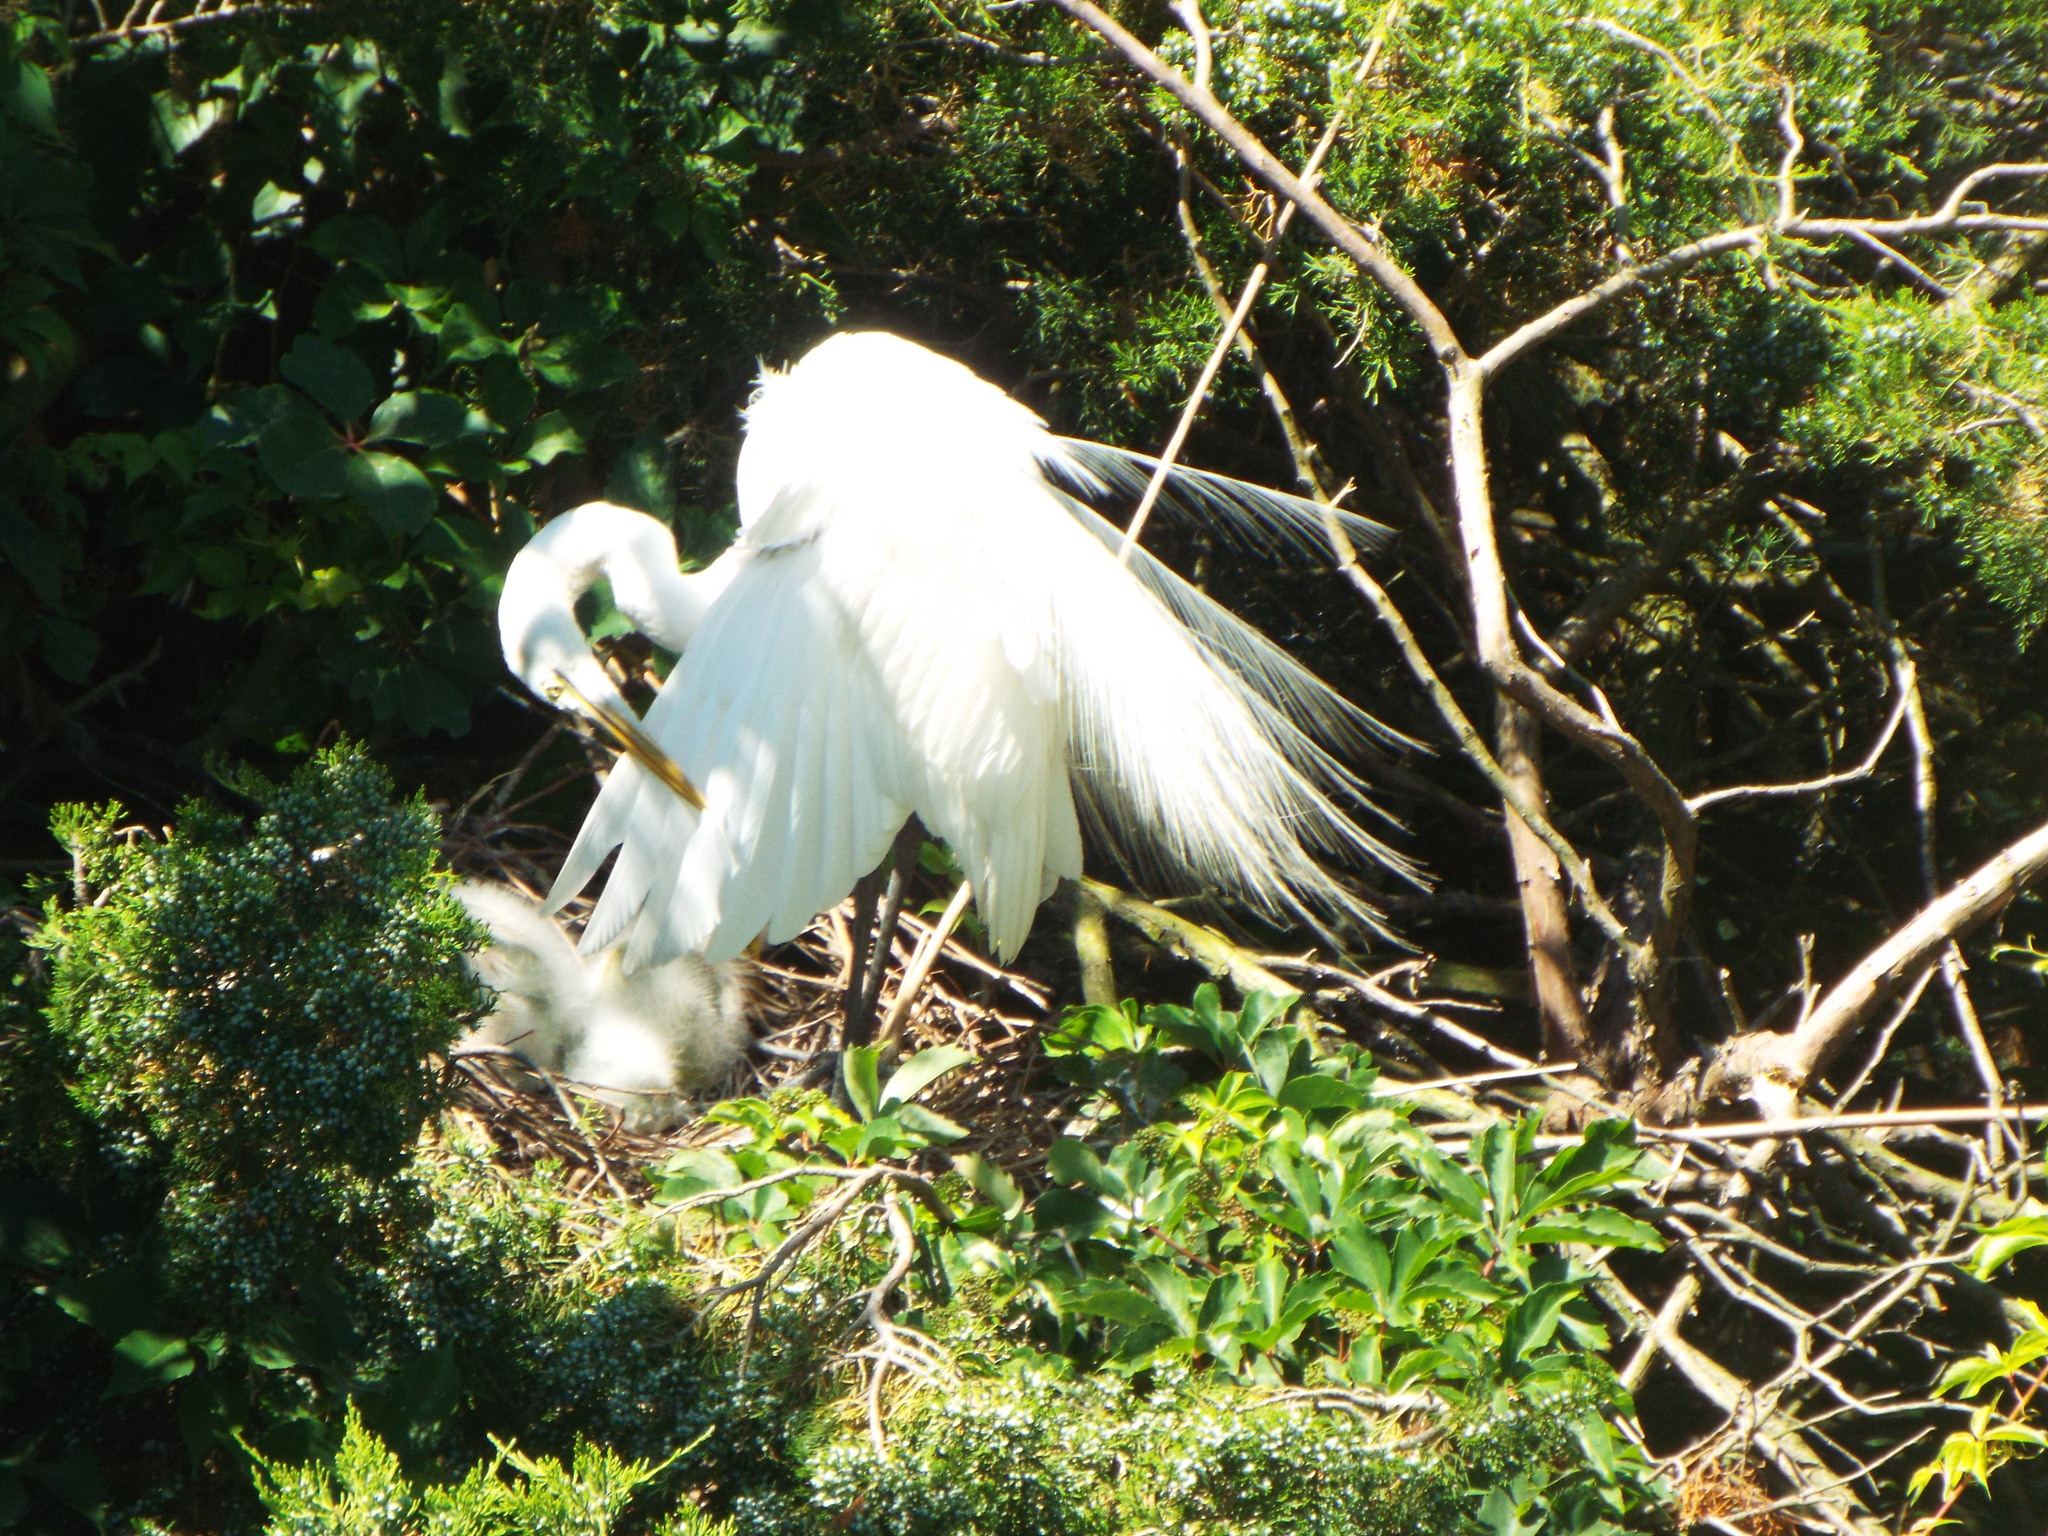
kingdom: Animalia
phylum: Chordata
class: Aves
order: Pelecaniformes
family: Ardeidae
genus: Ardea
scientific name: Ardea alba
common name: Great egret
